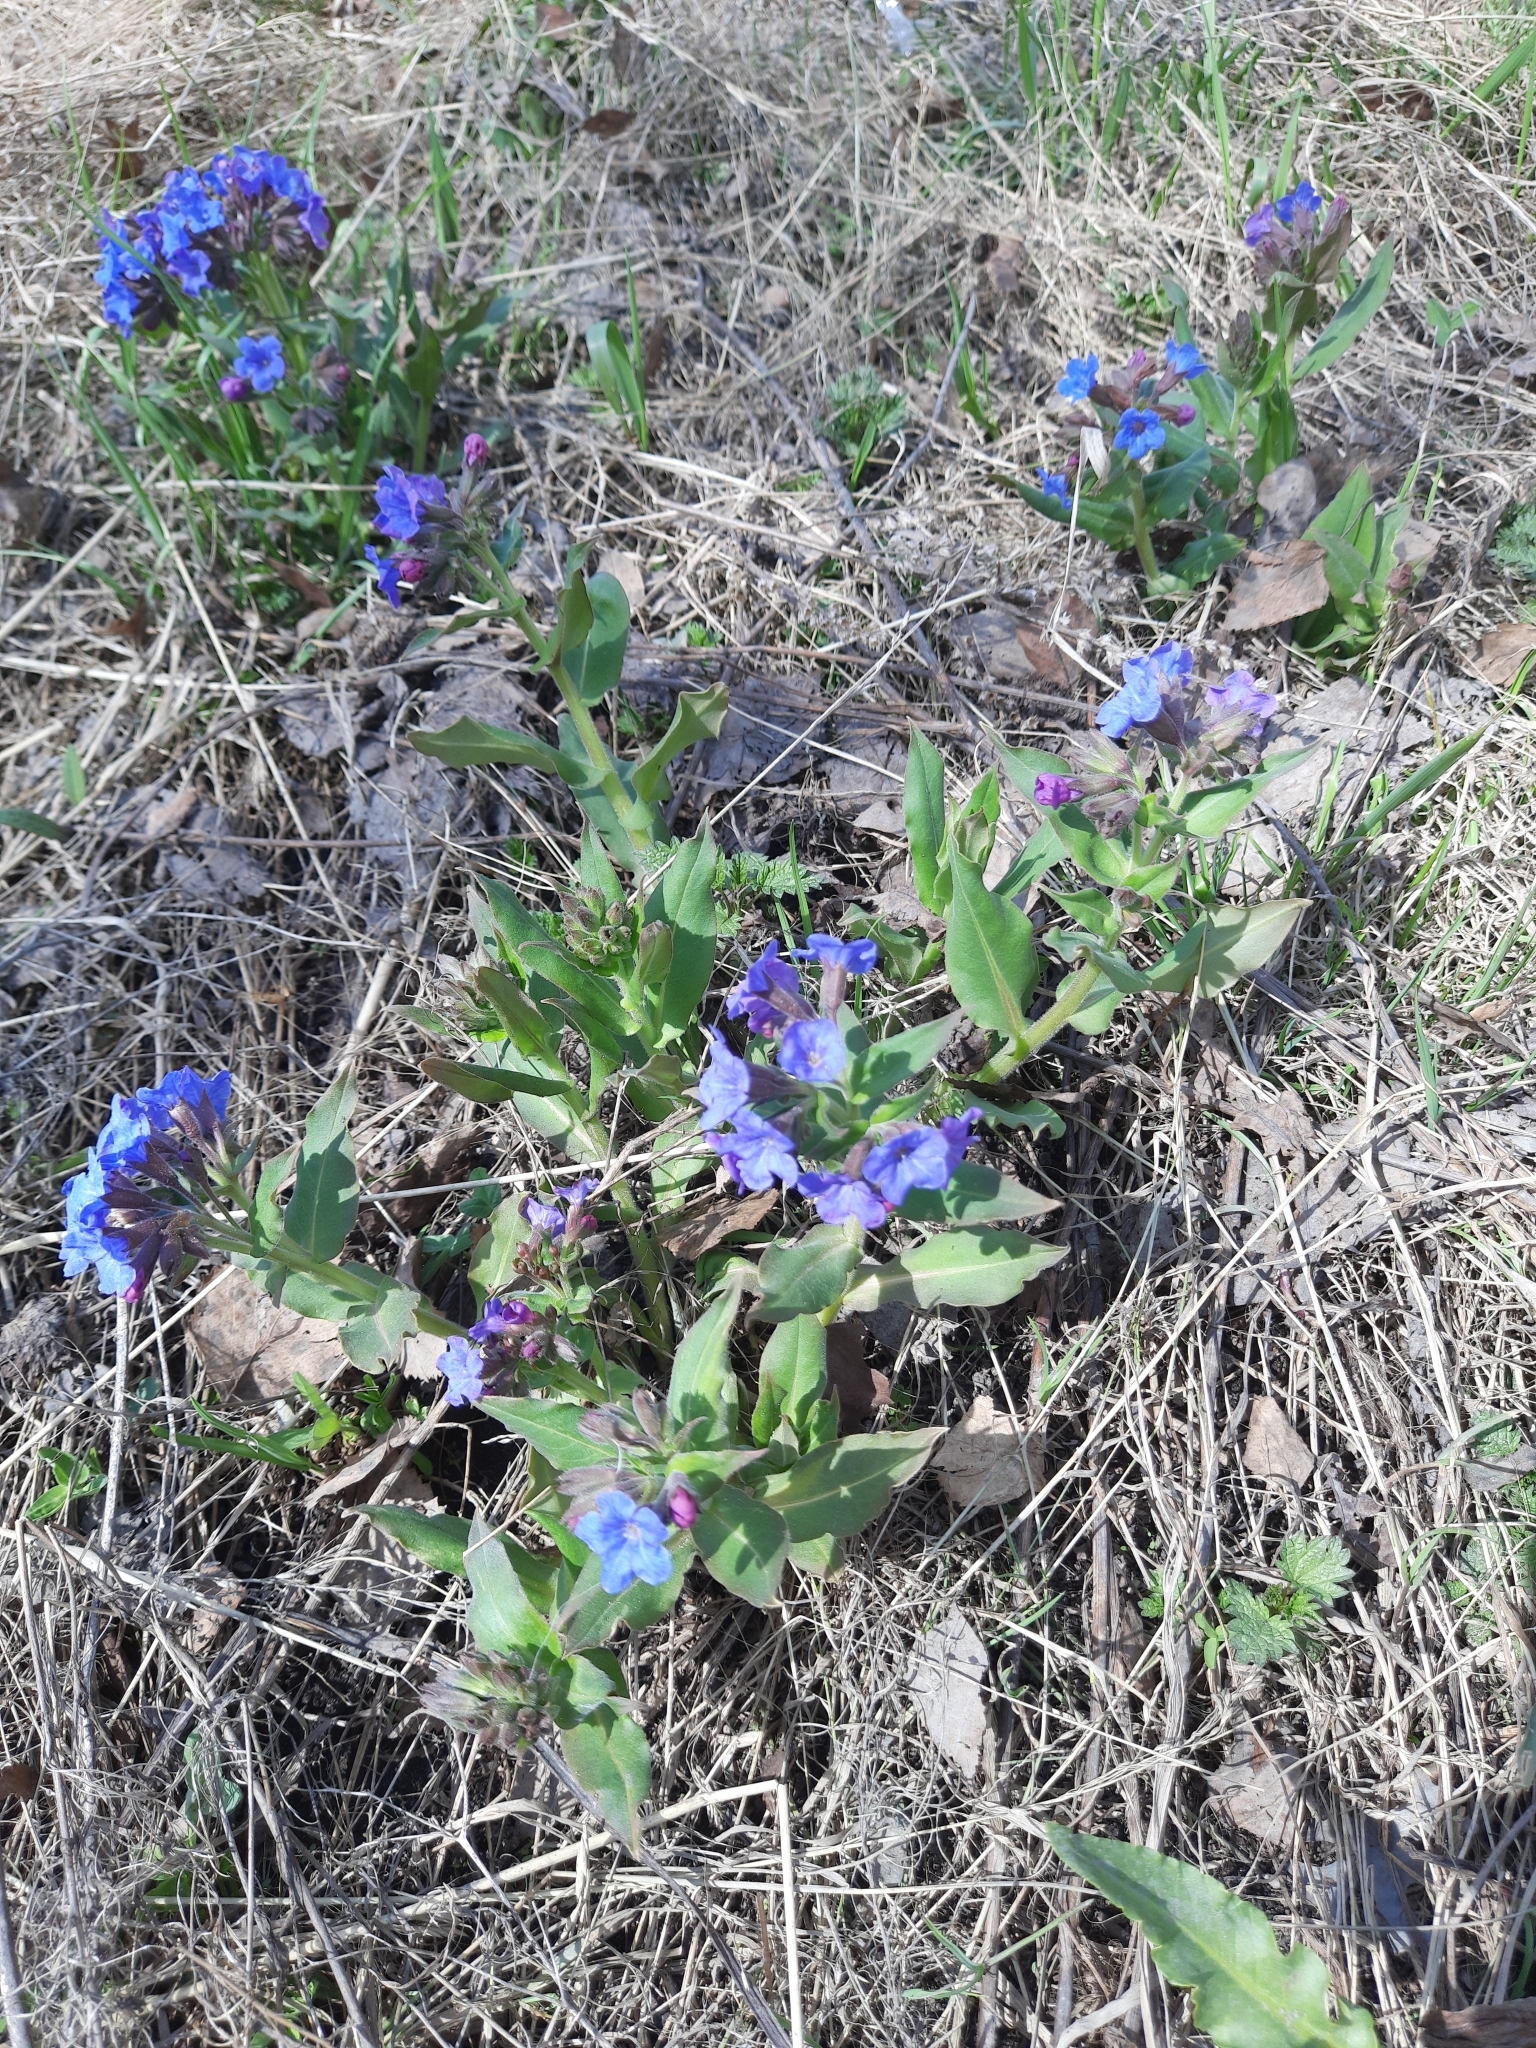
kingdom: Plantae
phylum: Tracheophyta
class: Magnoliopsida
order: Boraginales
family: Boraginaceae
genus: Pulmonaria
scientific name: Pulmonaria mollis
